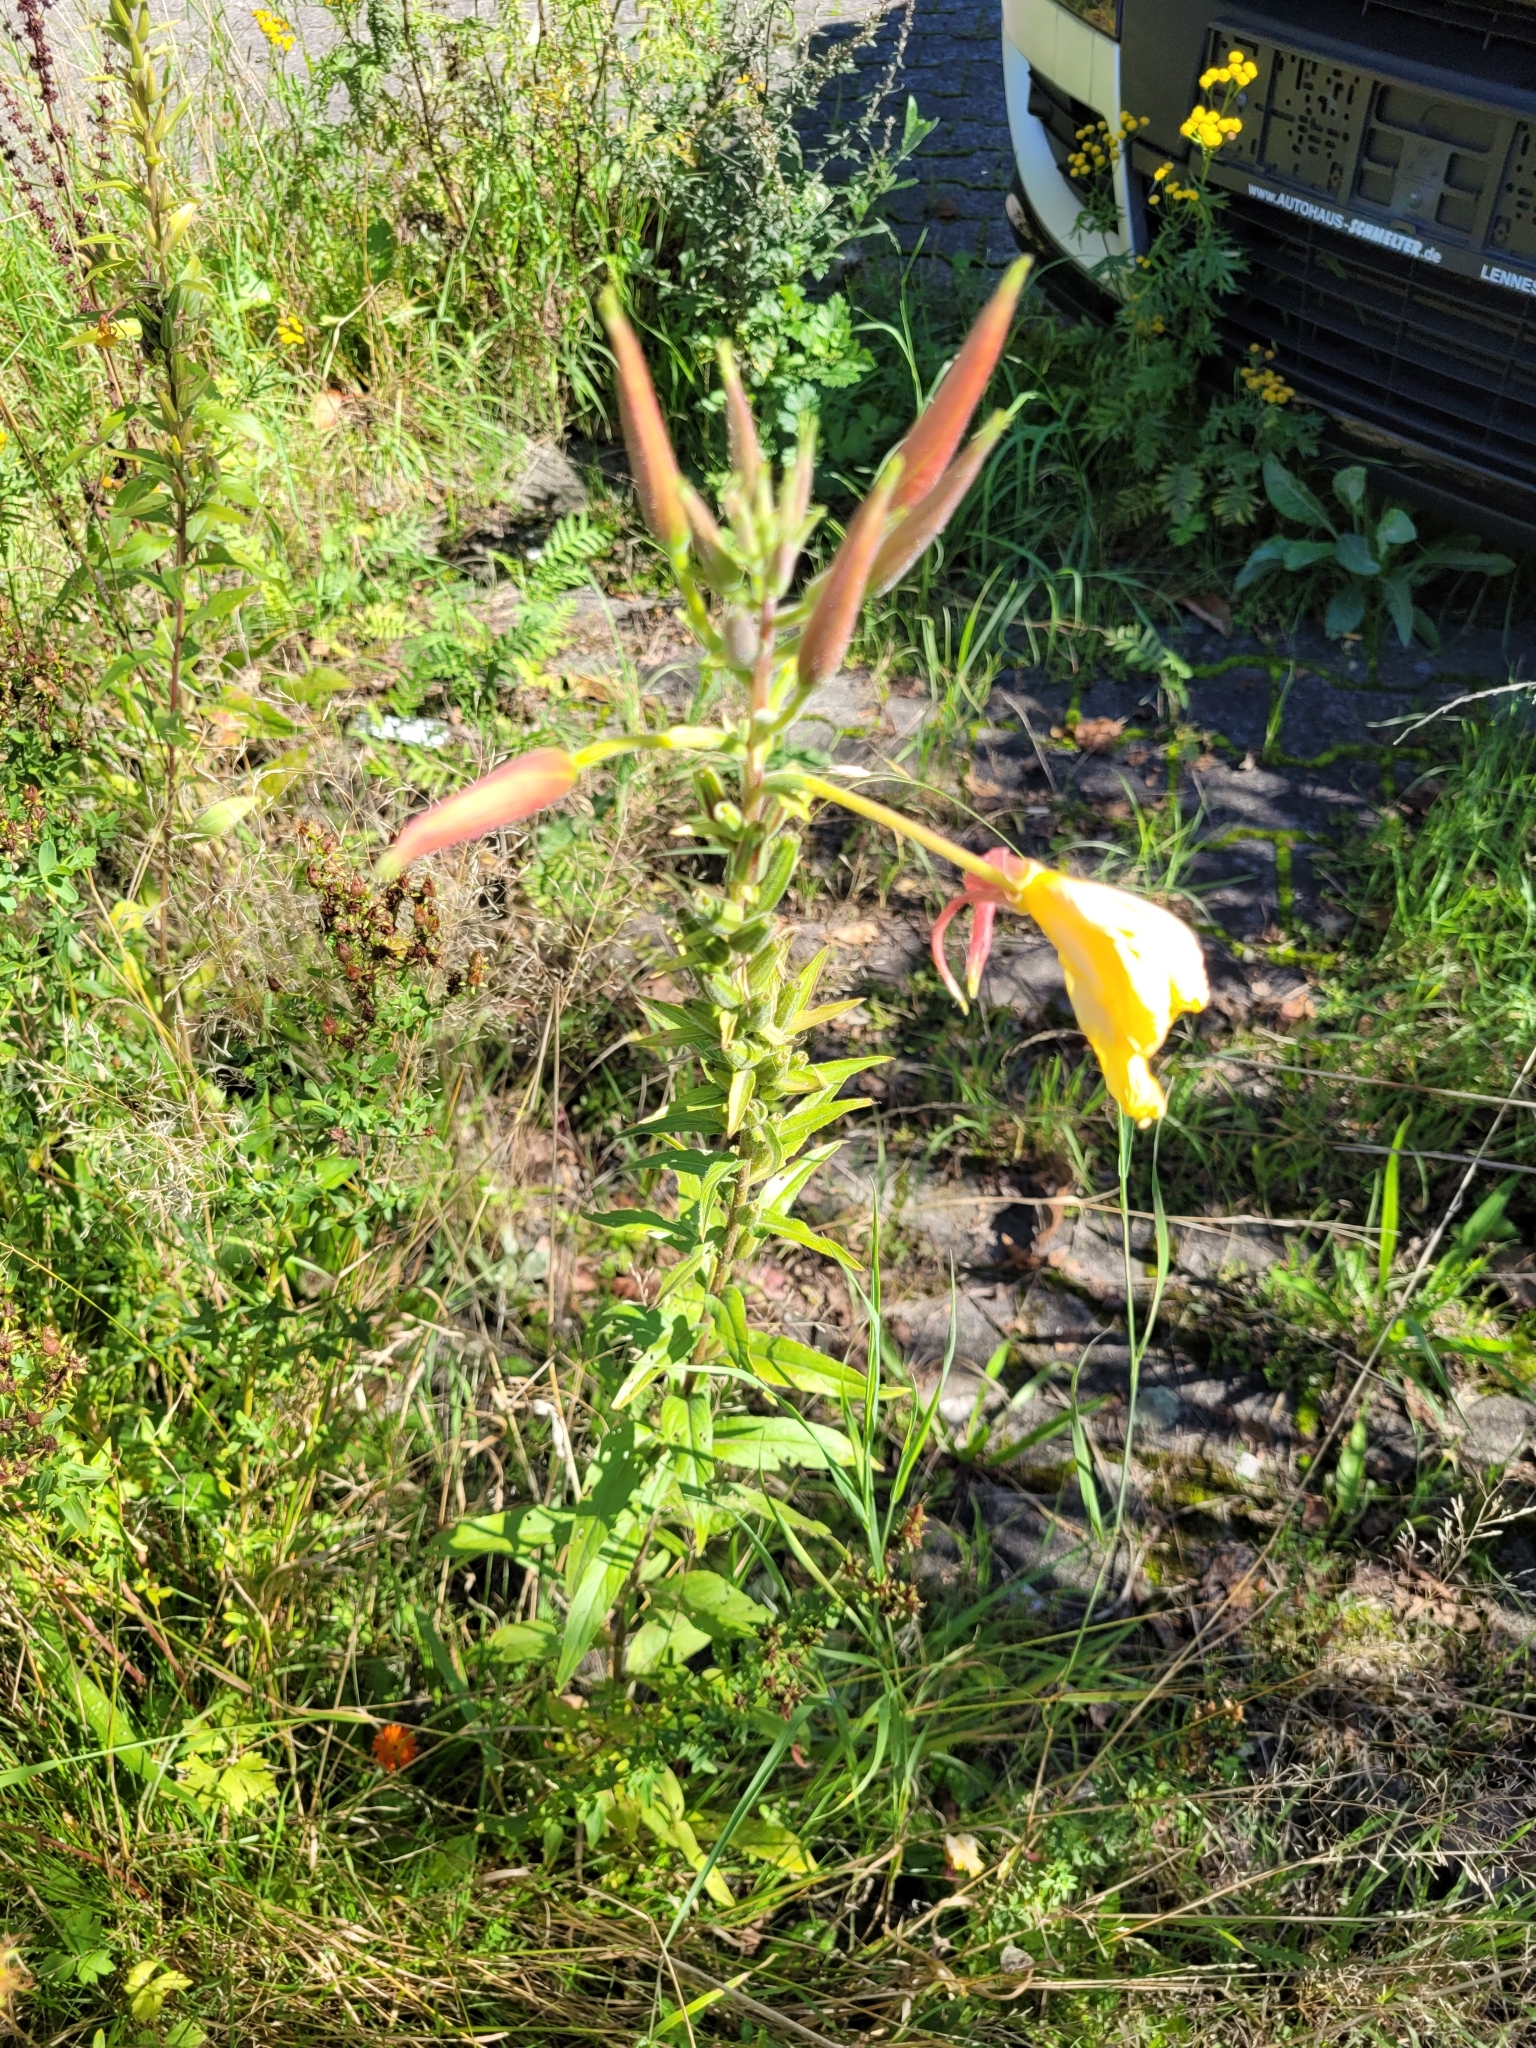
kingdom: Plantae
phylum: Tracheophyta
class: Magnoliopsida
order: Myrtales
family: Onagraceae
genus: Oenothera
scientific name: Oenothera glazioviana
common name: Large-flowered evening-primrose
